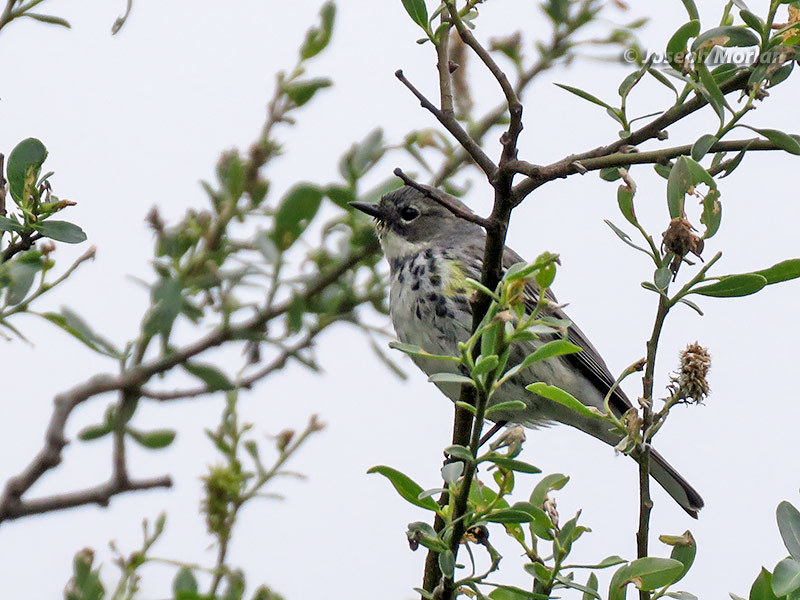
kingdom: Animalia
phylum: Chordata
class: Aves
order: Passeriformes
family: Parulidae
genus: Setophaga
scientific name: Setophaga coronata
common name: Myrtle warbler
